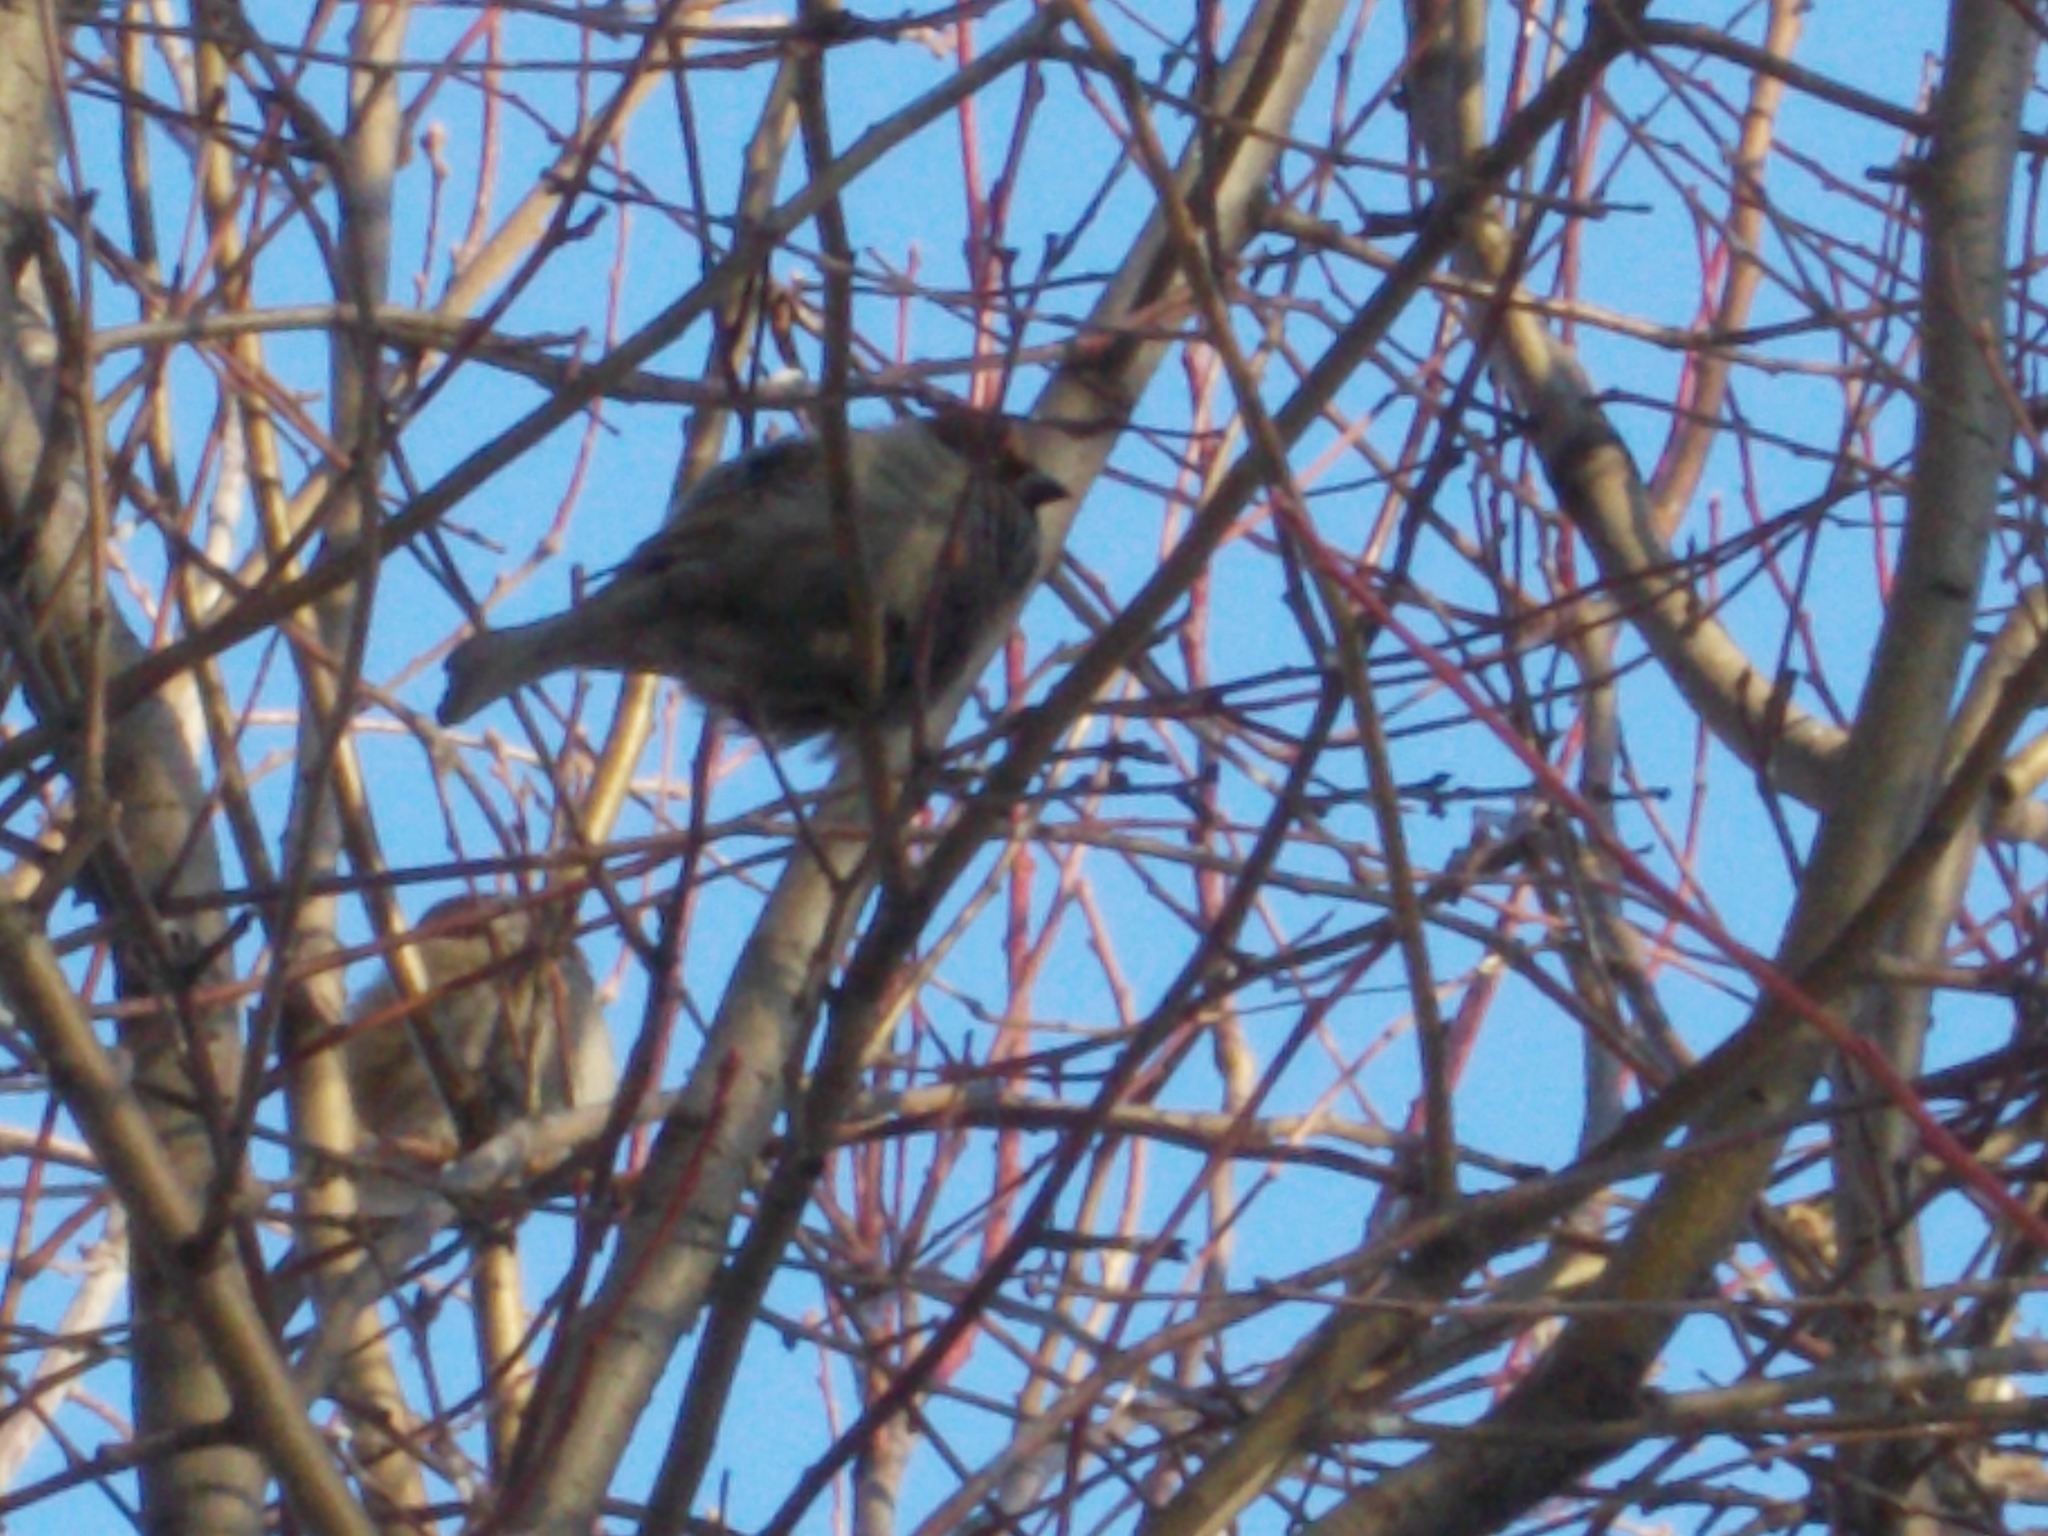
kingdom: Animalia
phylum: Chordata
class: Aves
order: Passeriformes
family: Passeridae
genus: Passer
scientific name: Passer domesticus
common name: House sparrow
